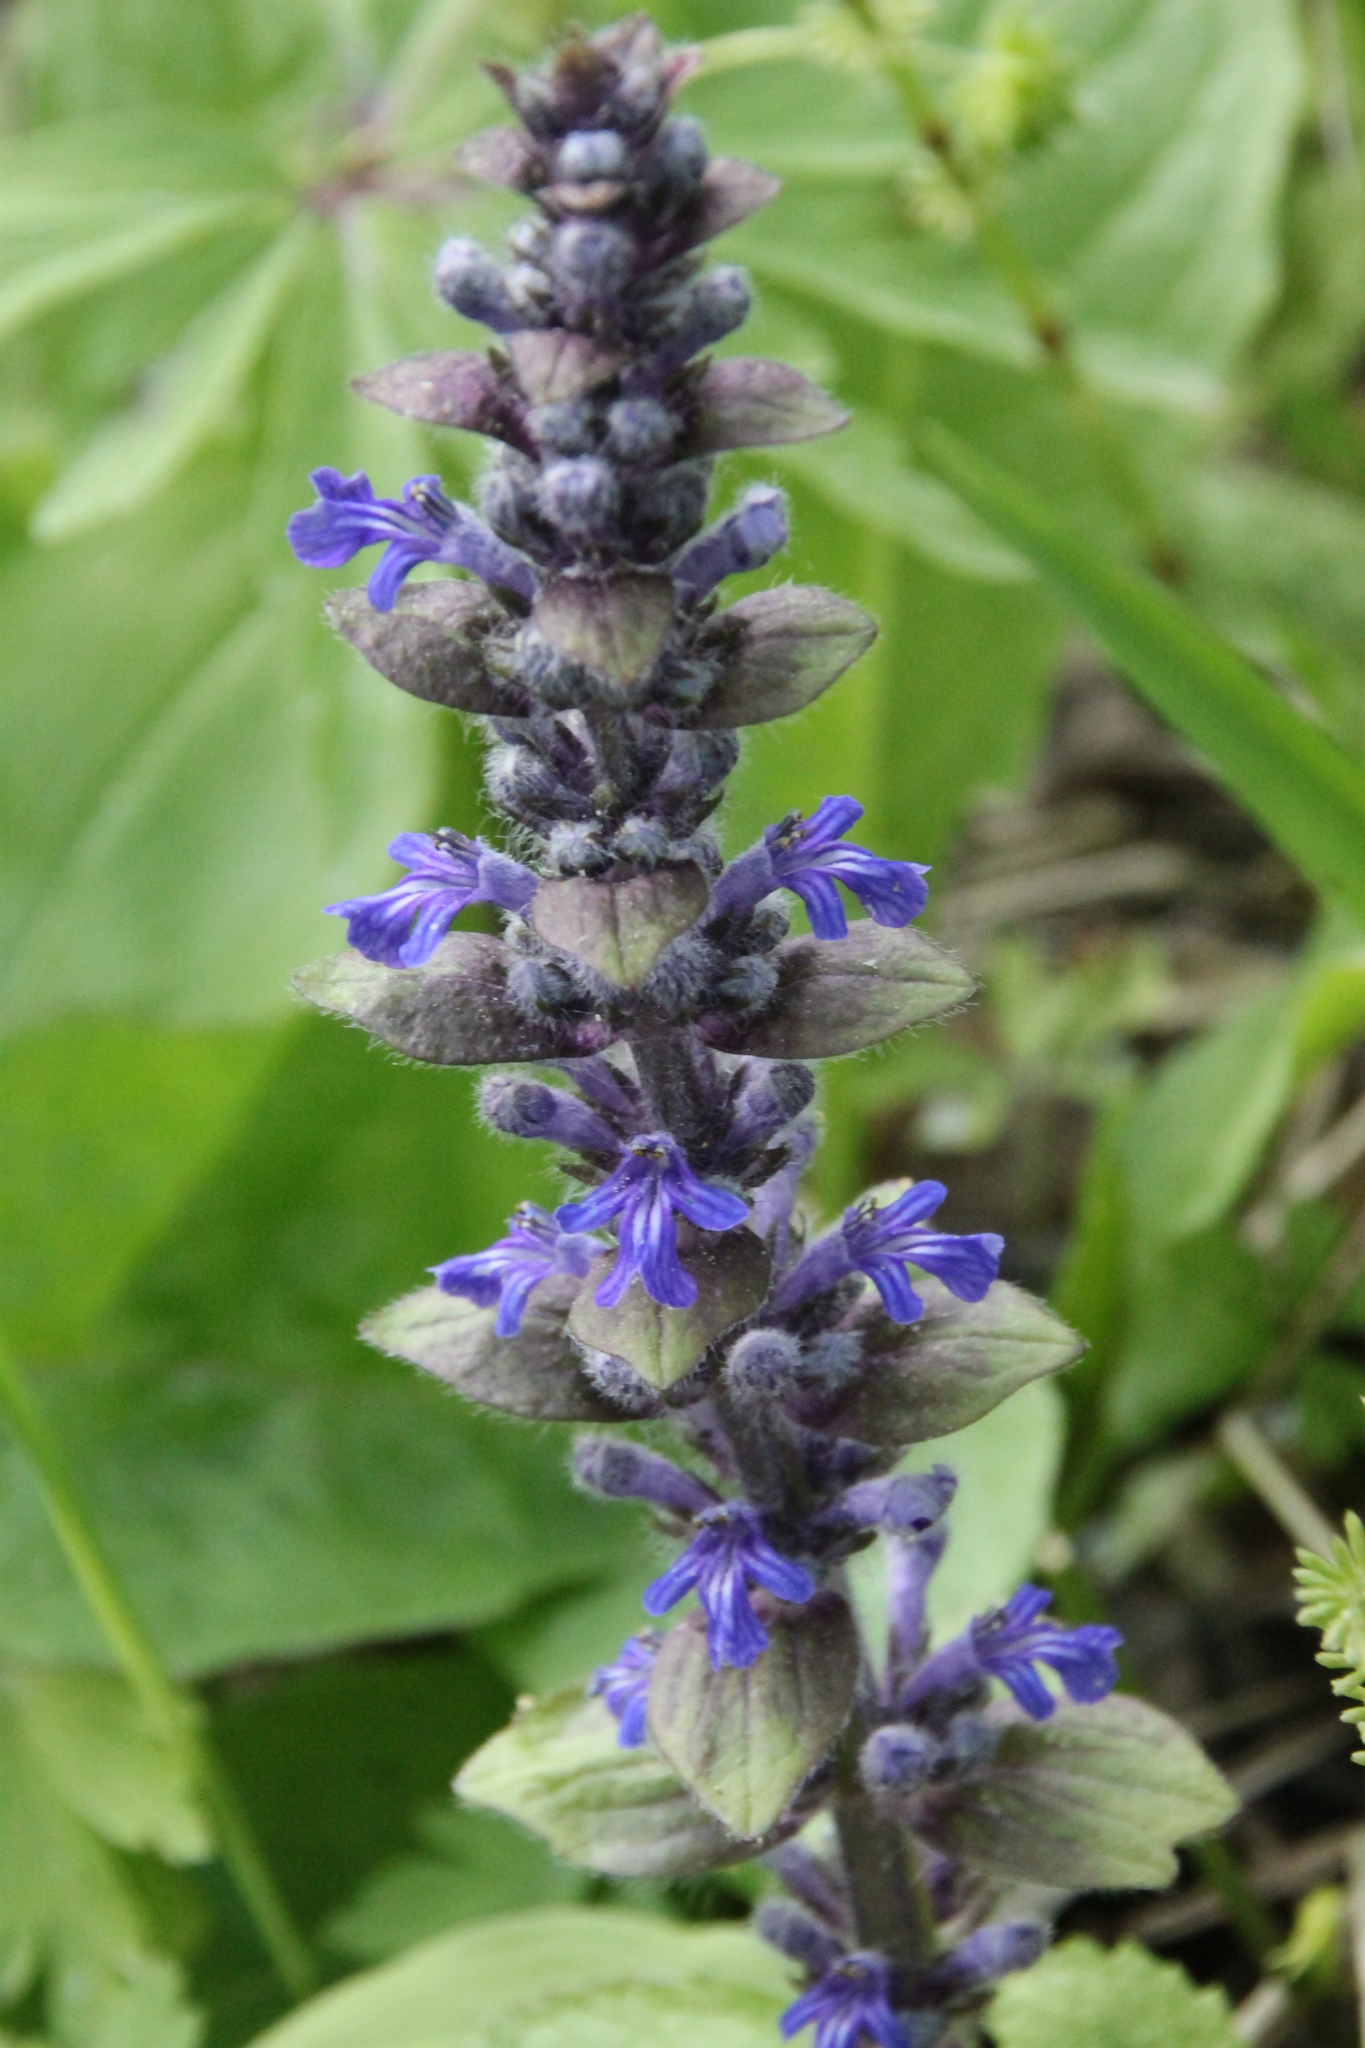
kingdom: Plantae
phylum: Tracheophyta
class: Magnoliopsida
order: Lamiales
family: Lamiaceae
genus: Ajuga
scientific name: Ajuga reptans
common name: Bugle
